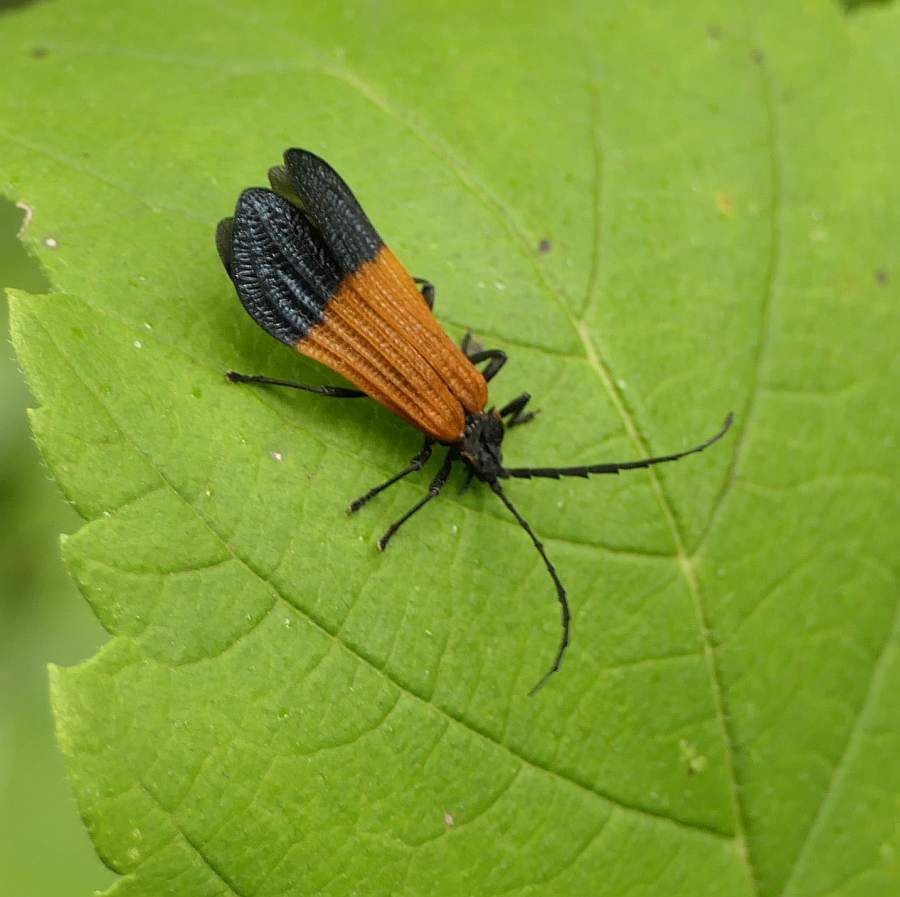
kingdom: Animalia
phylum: Arthropoda
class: Insecta
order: Coleoptera
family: Lycidae
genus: Calopteron
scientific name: Calopteron terminale
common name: End band net-winged beetle
